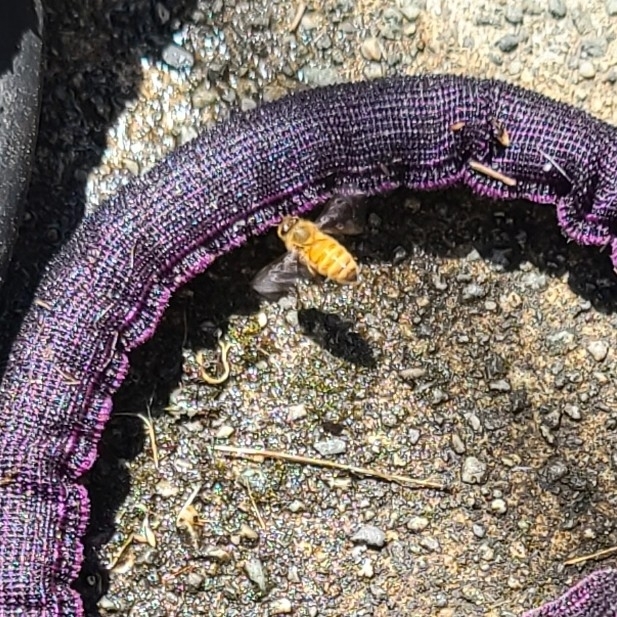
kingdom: Animalia
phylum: Arthropoda
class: Insecta
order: Hymenoptera
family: Apidae
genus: Apis
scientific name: Apis mellifera
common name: Honey bee
